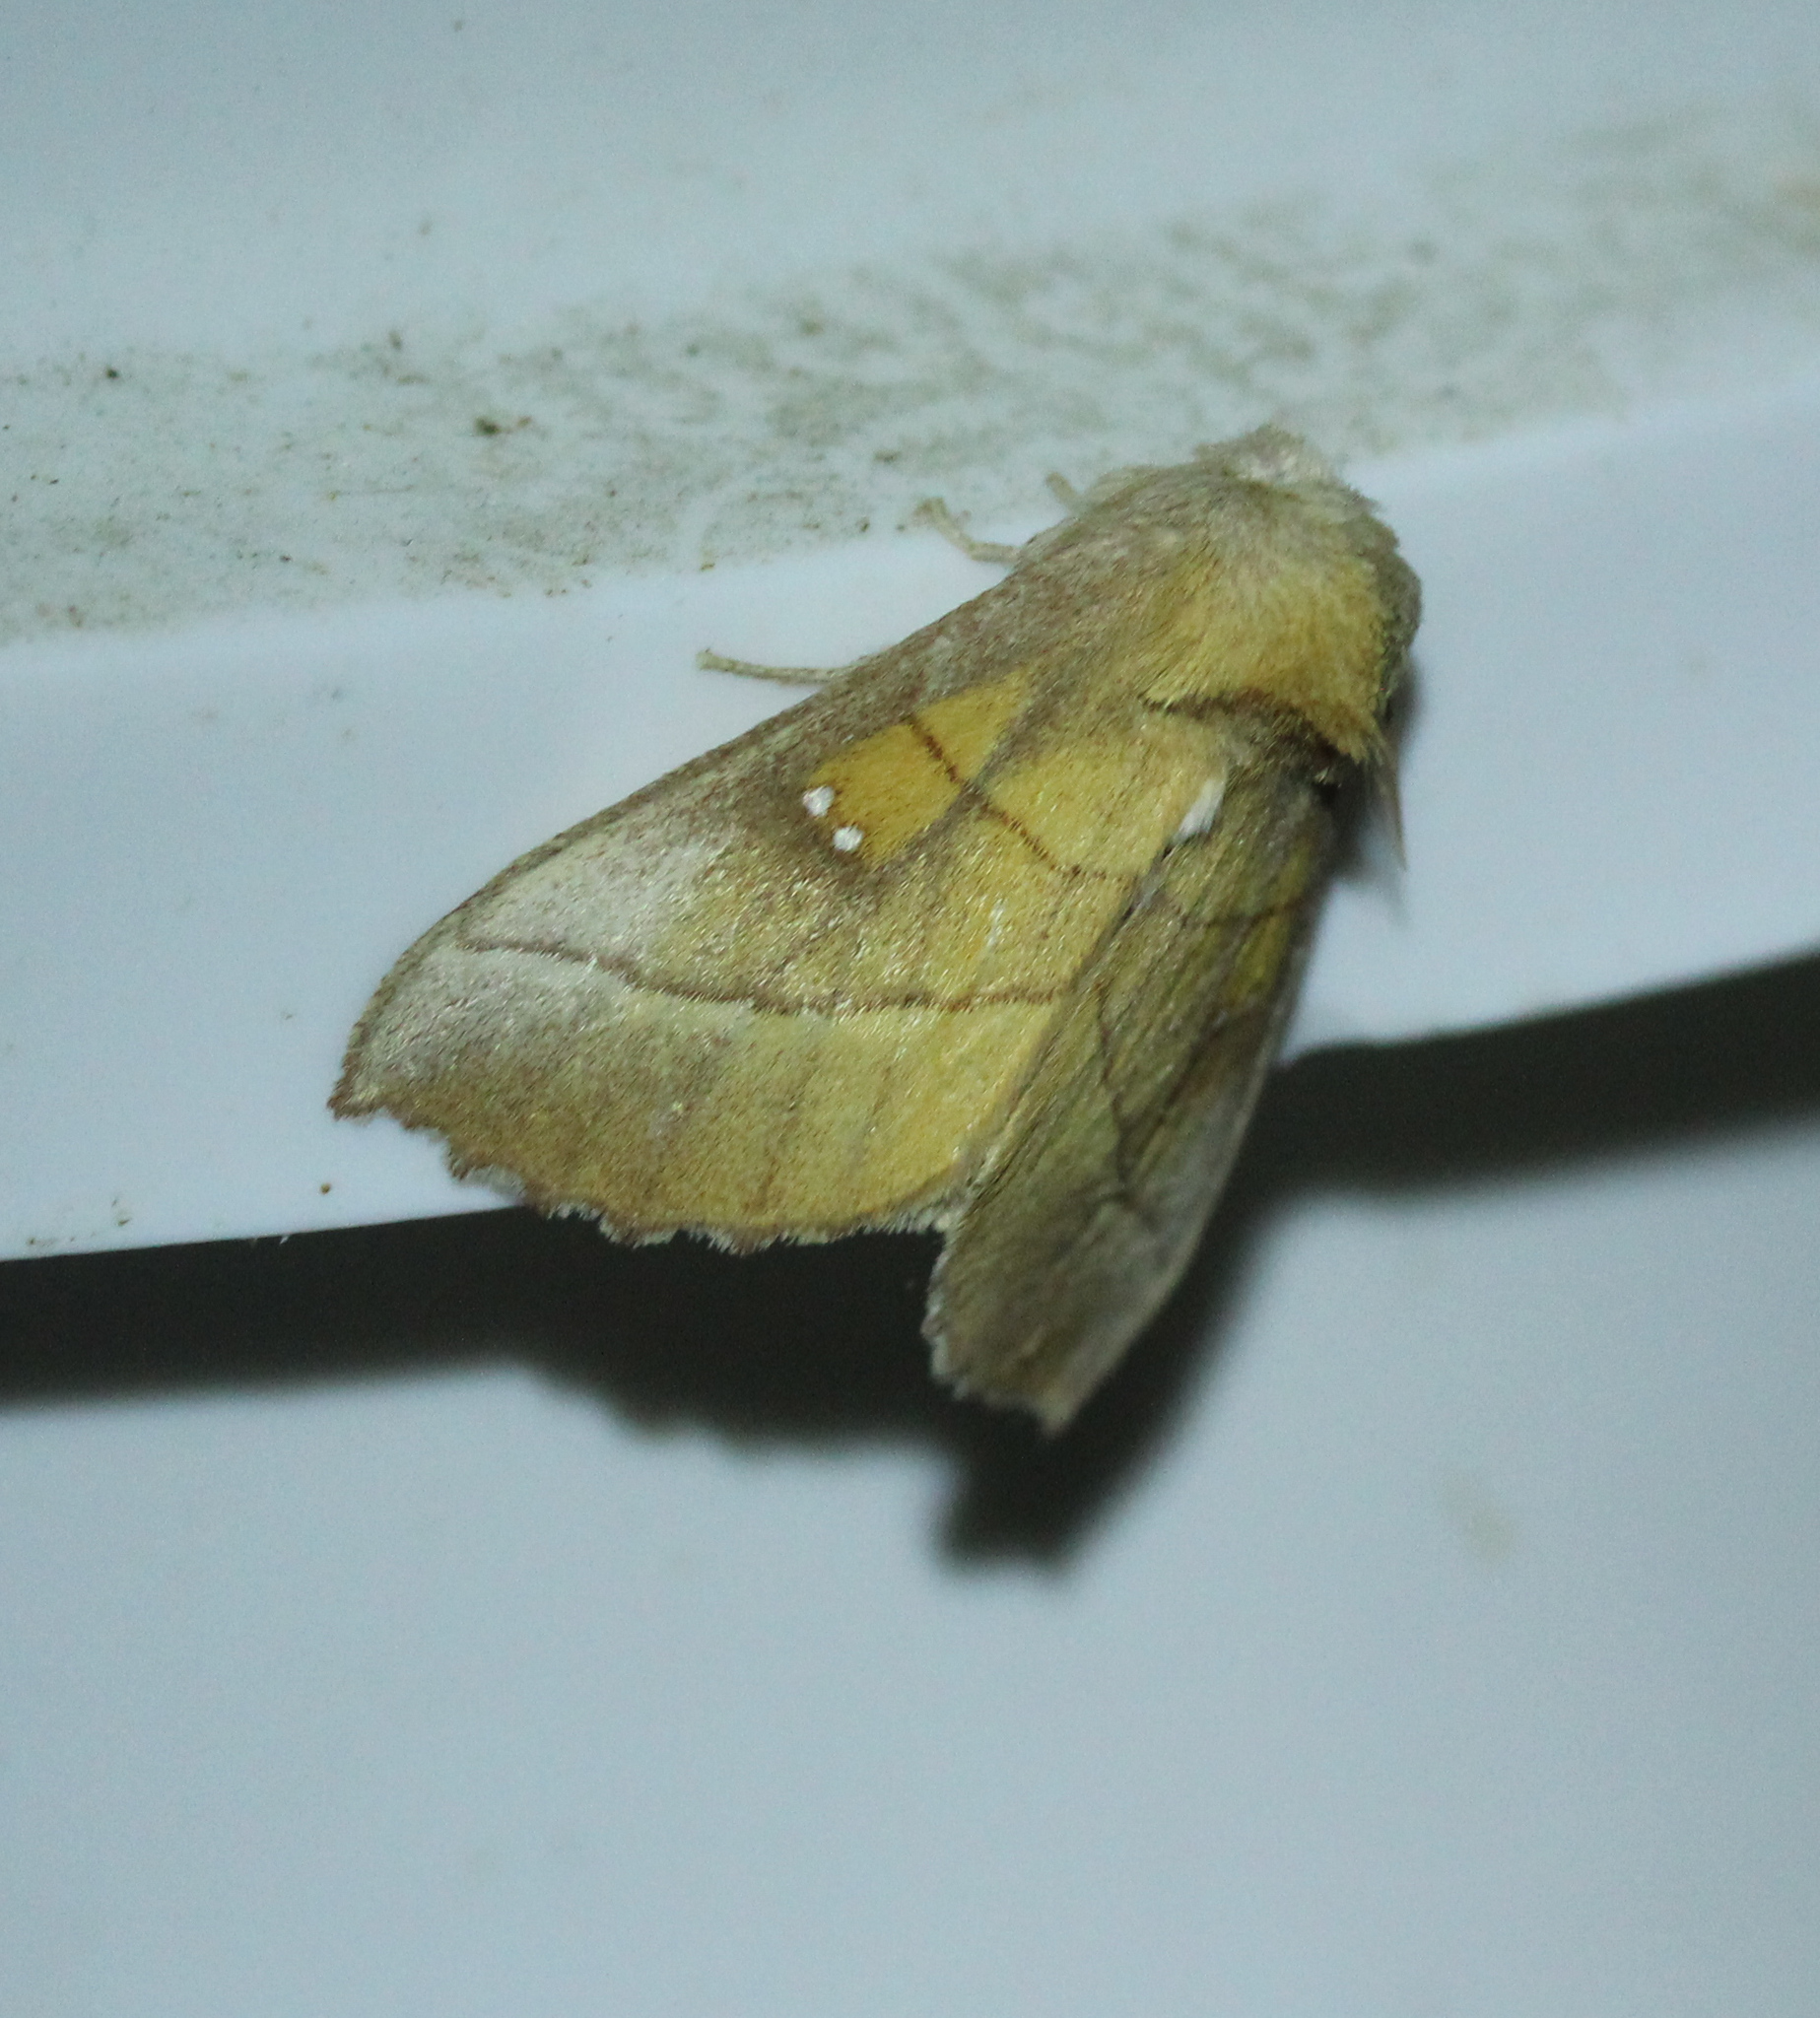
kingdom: Animalia
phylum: Arthropoda
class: Insecta
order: Lepidoptera
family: Notodontidae
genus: Nadata
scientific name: Nadata gibbosa
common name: White-dotted prominent
